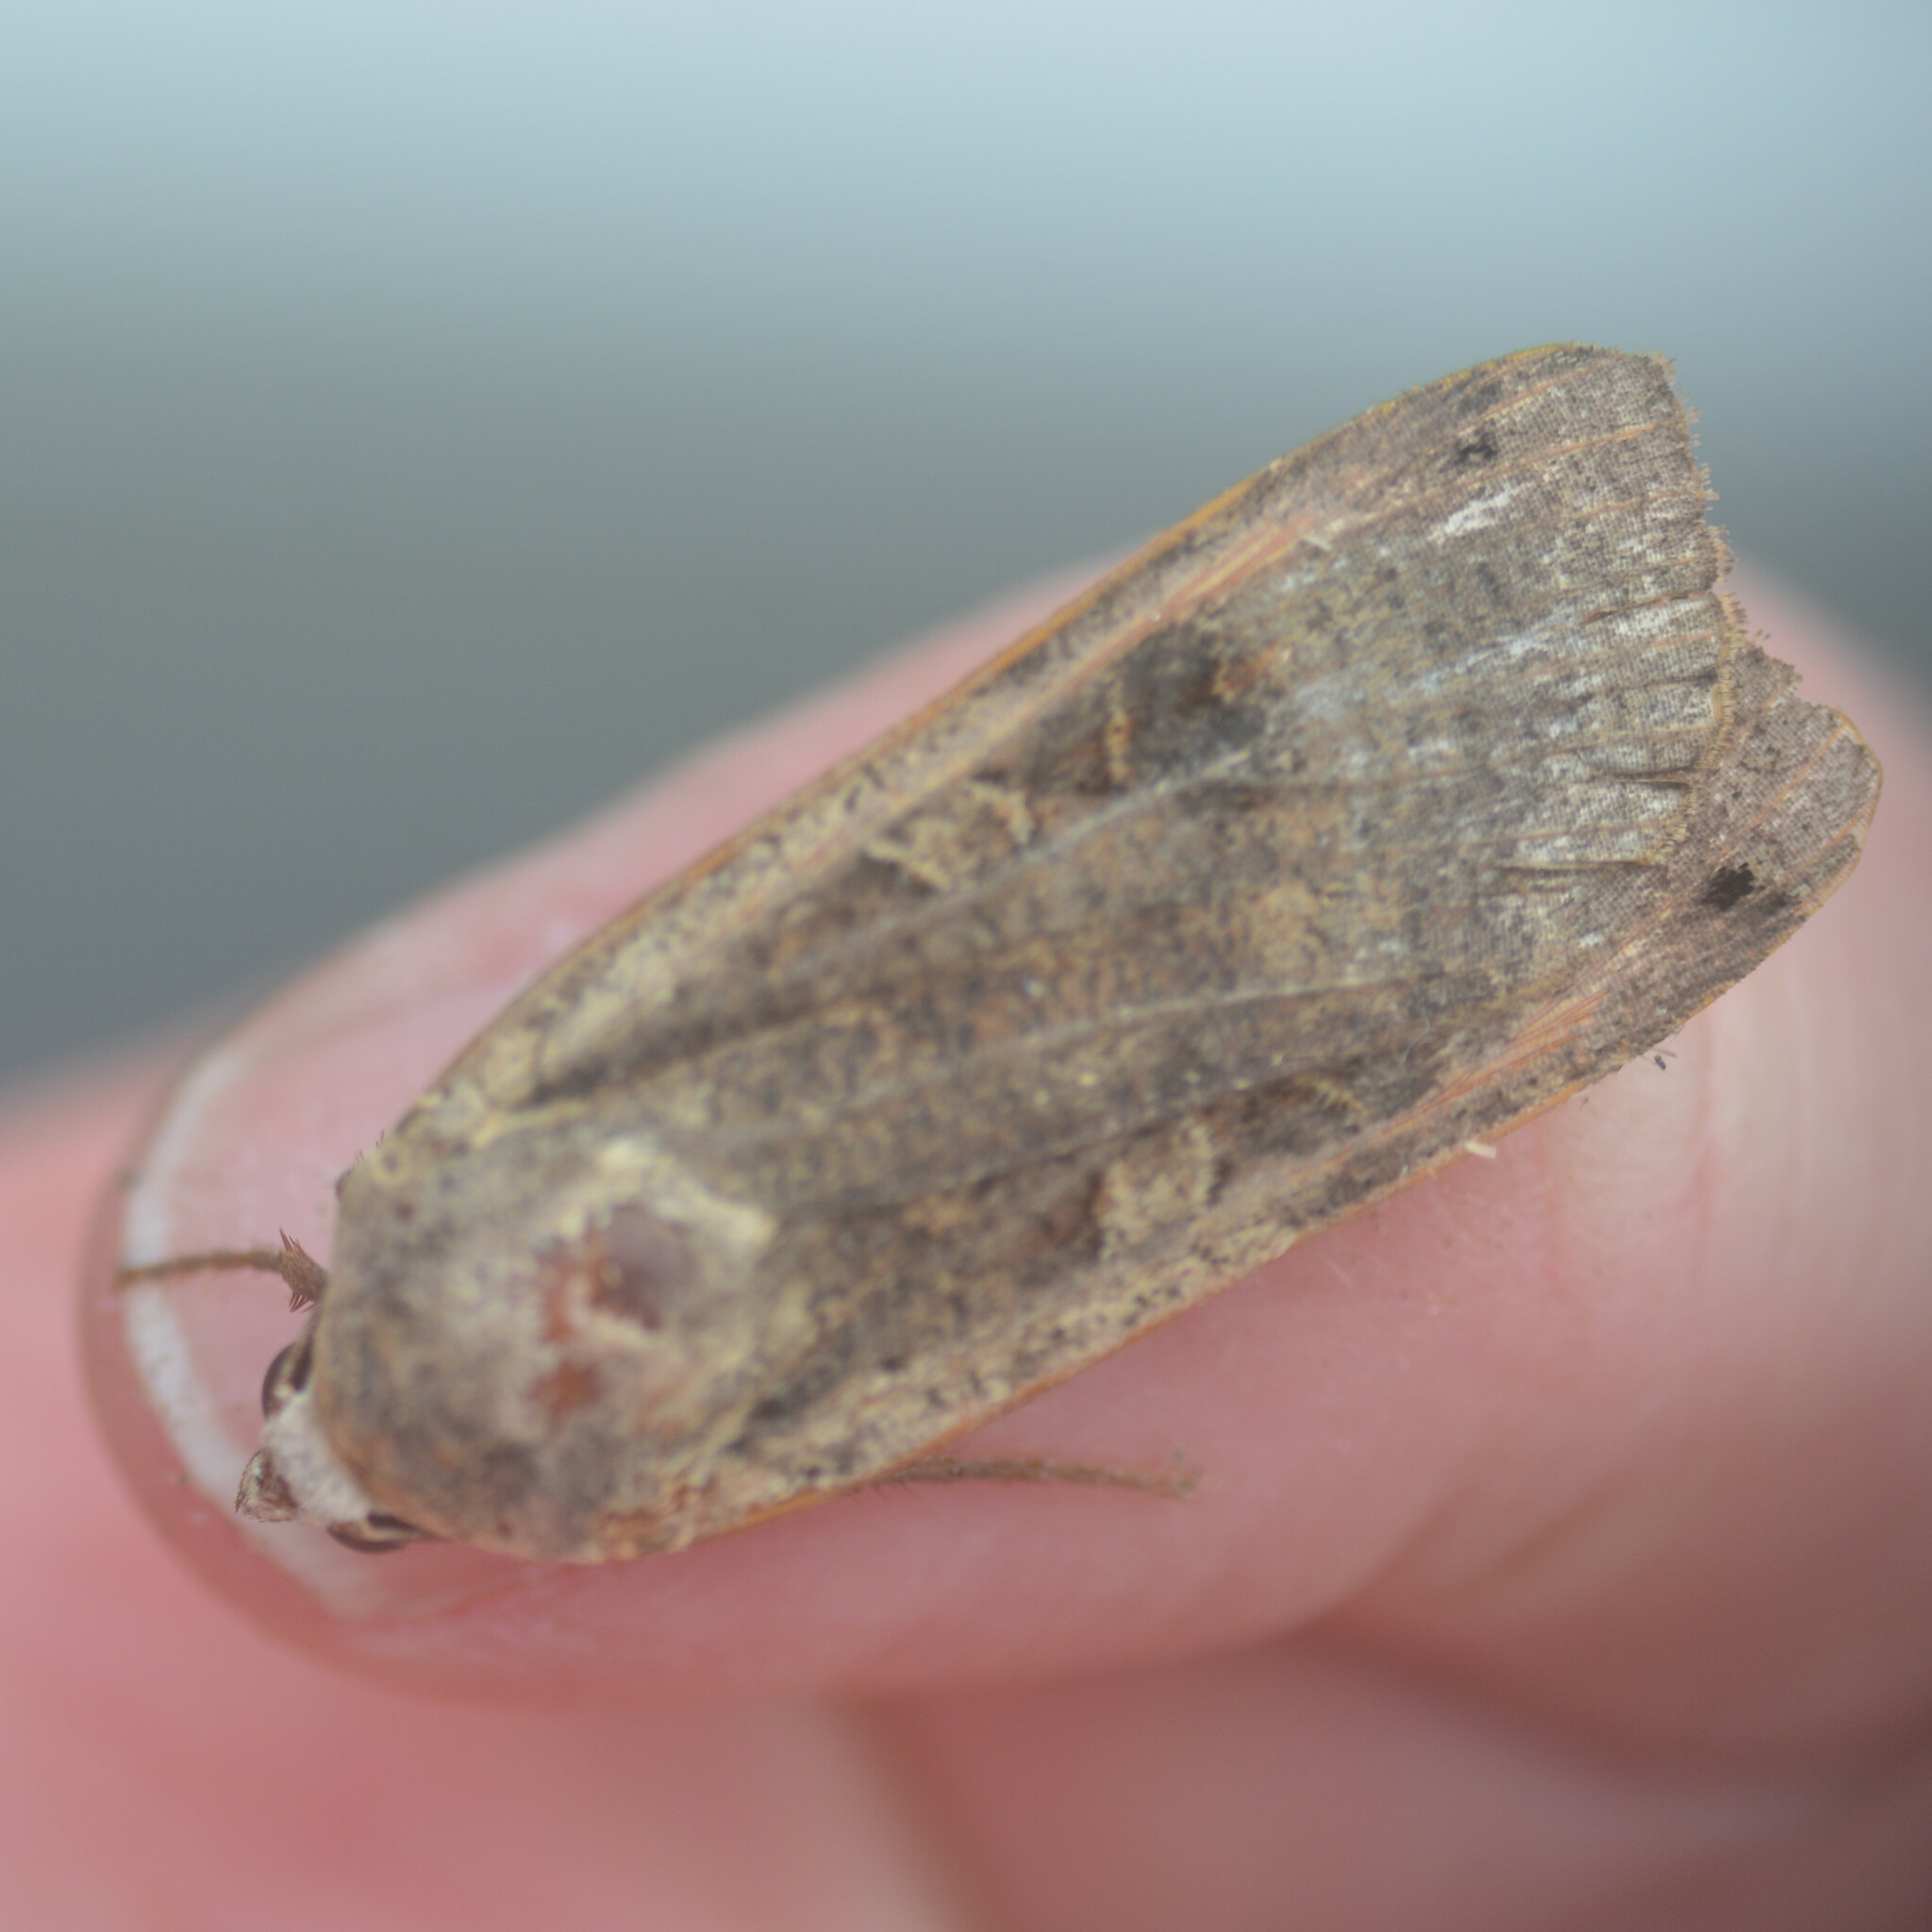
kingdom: Animalia
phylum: Arthropoda
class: Insecta
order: Lepidoptera
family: Noctuidae
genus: Noctua
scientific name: Noctua pronuba
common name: Large yellow underwing
